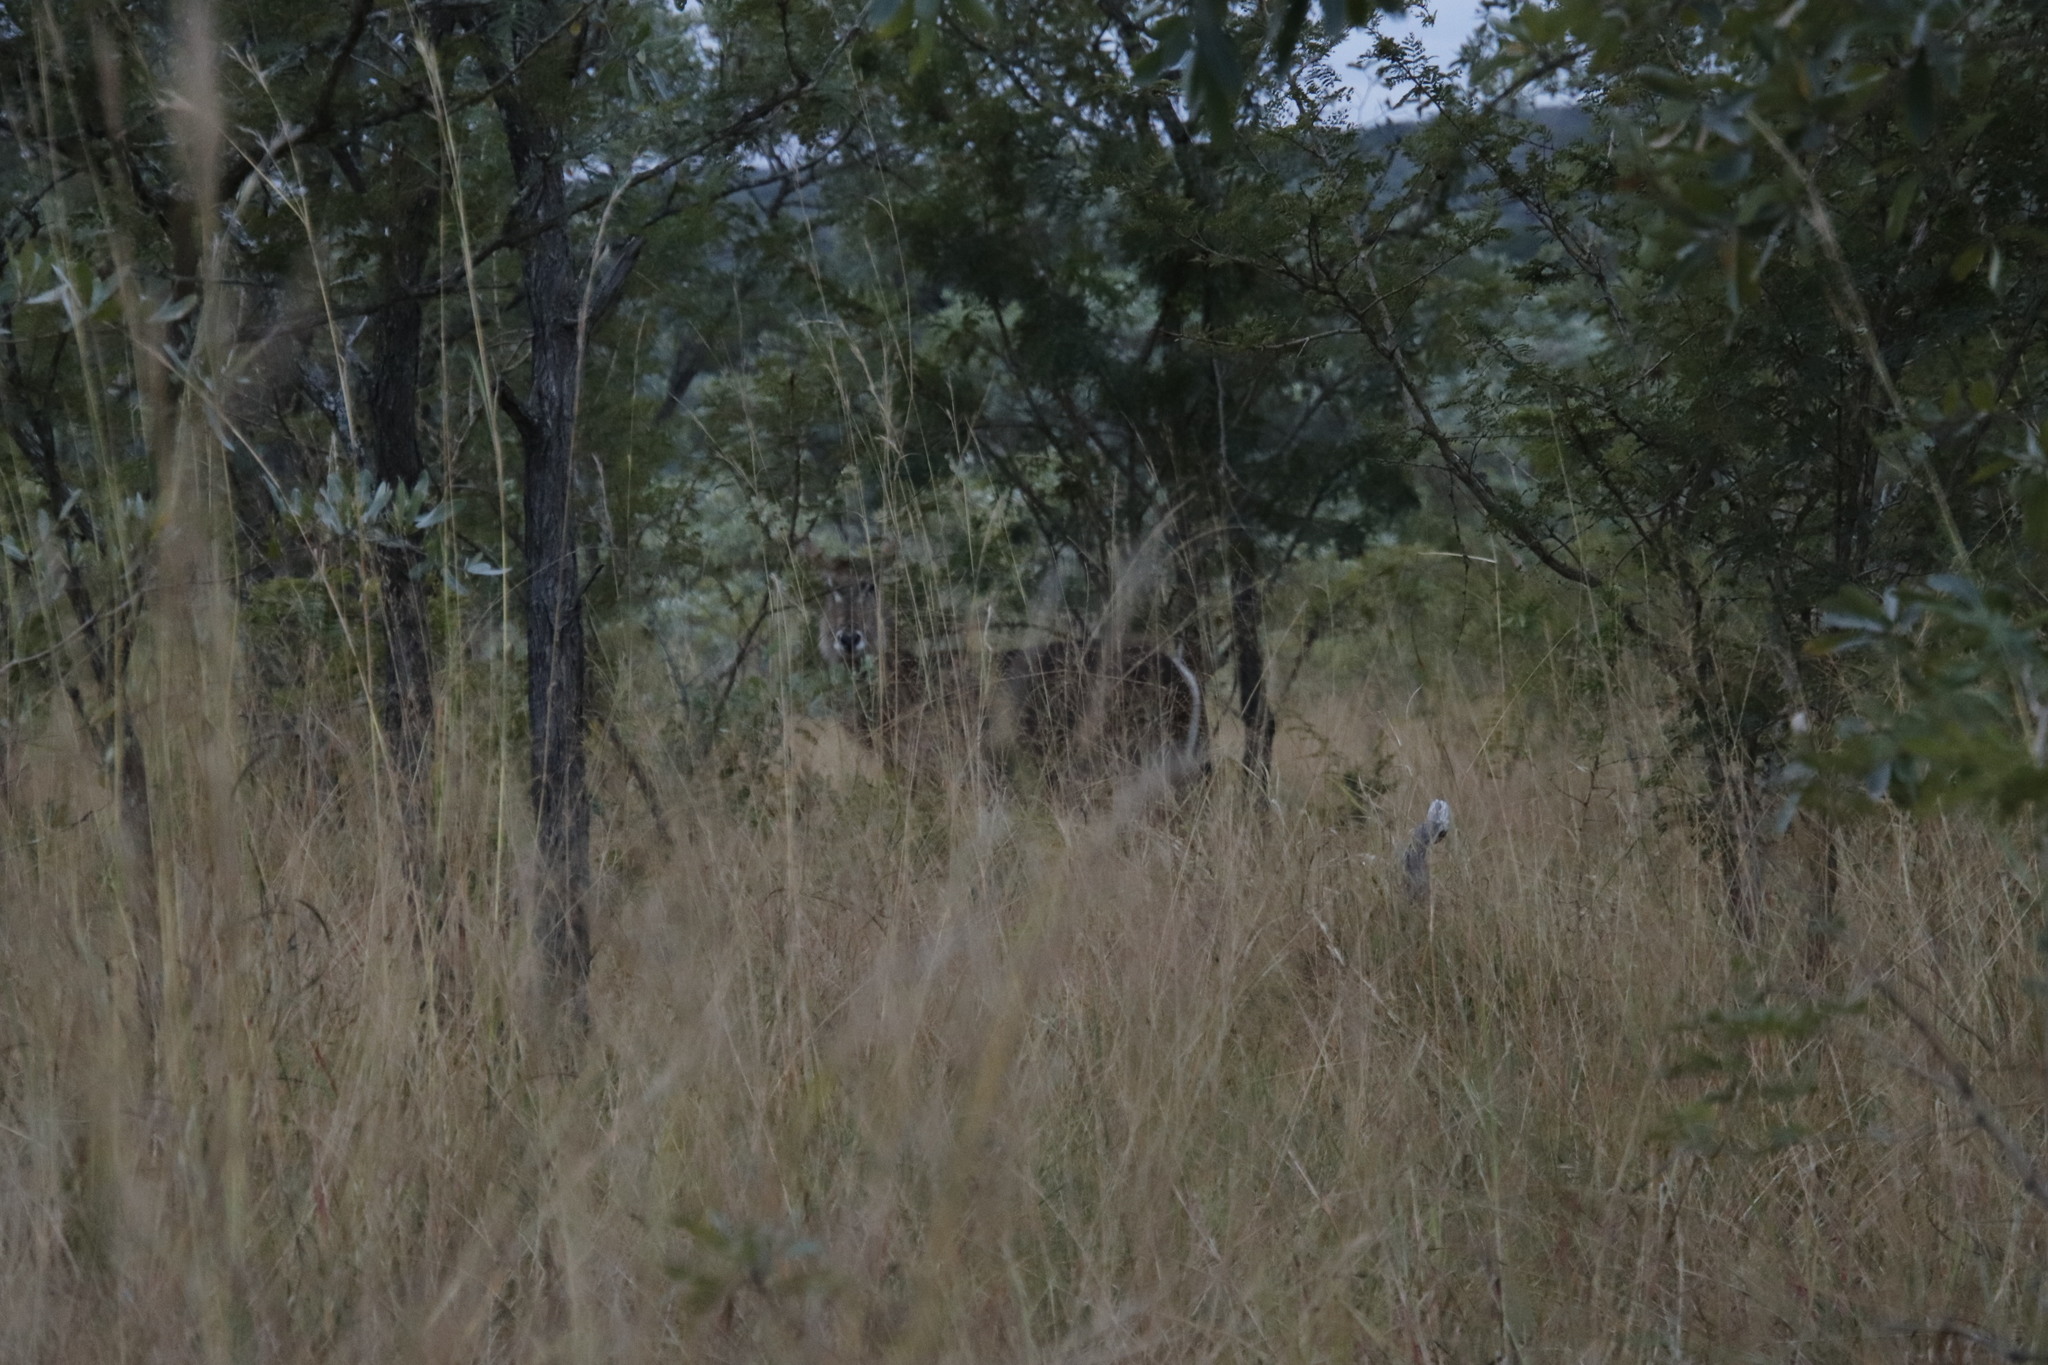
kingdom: Animalia
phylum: Chordata
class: Mammalia
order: Artiodactyla
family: Bovidae
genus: Kobus
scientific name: Kobus ellipsiprymnus
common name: Waterbuck
